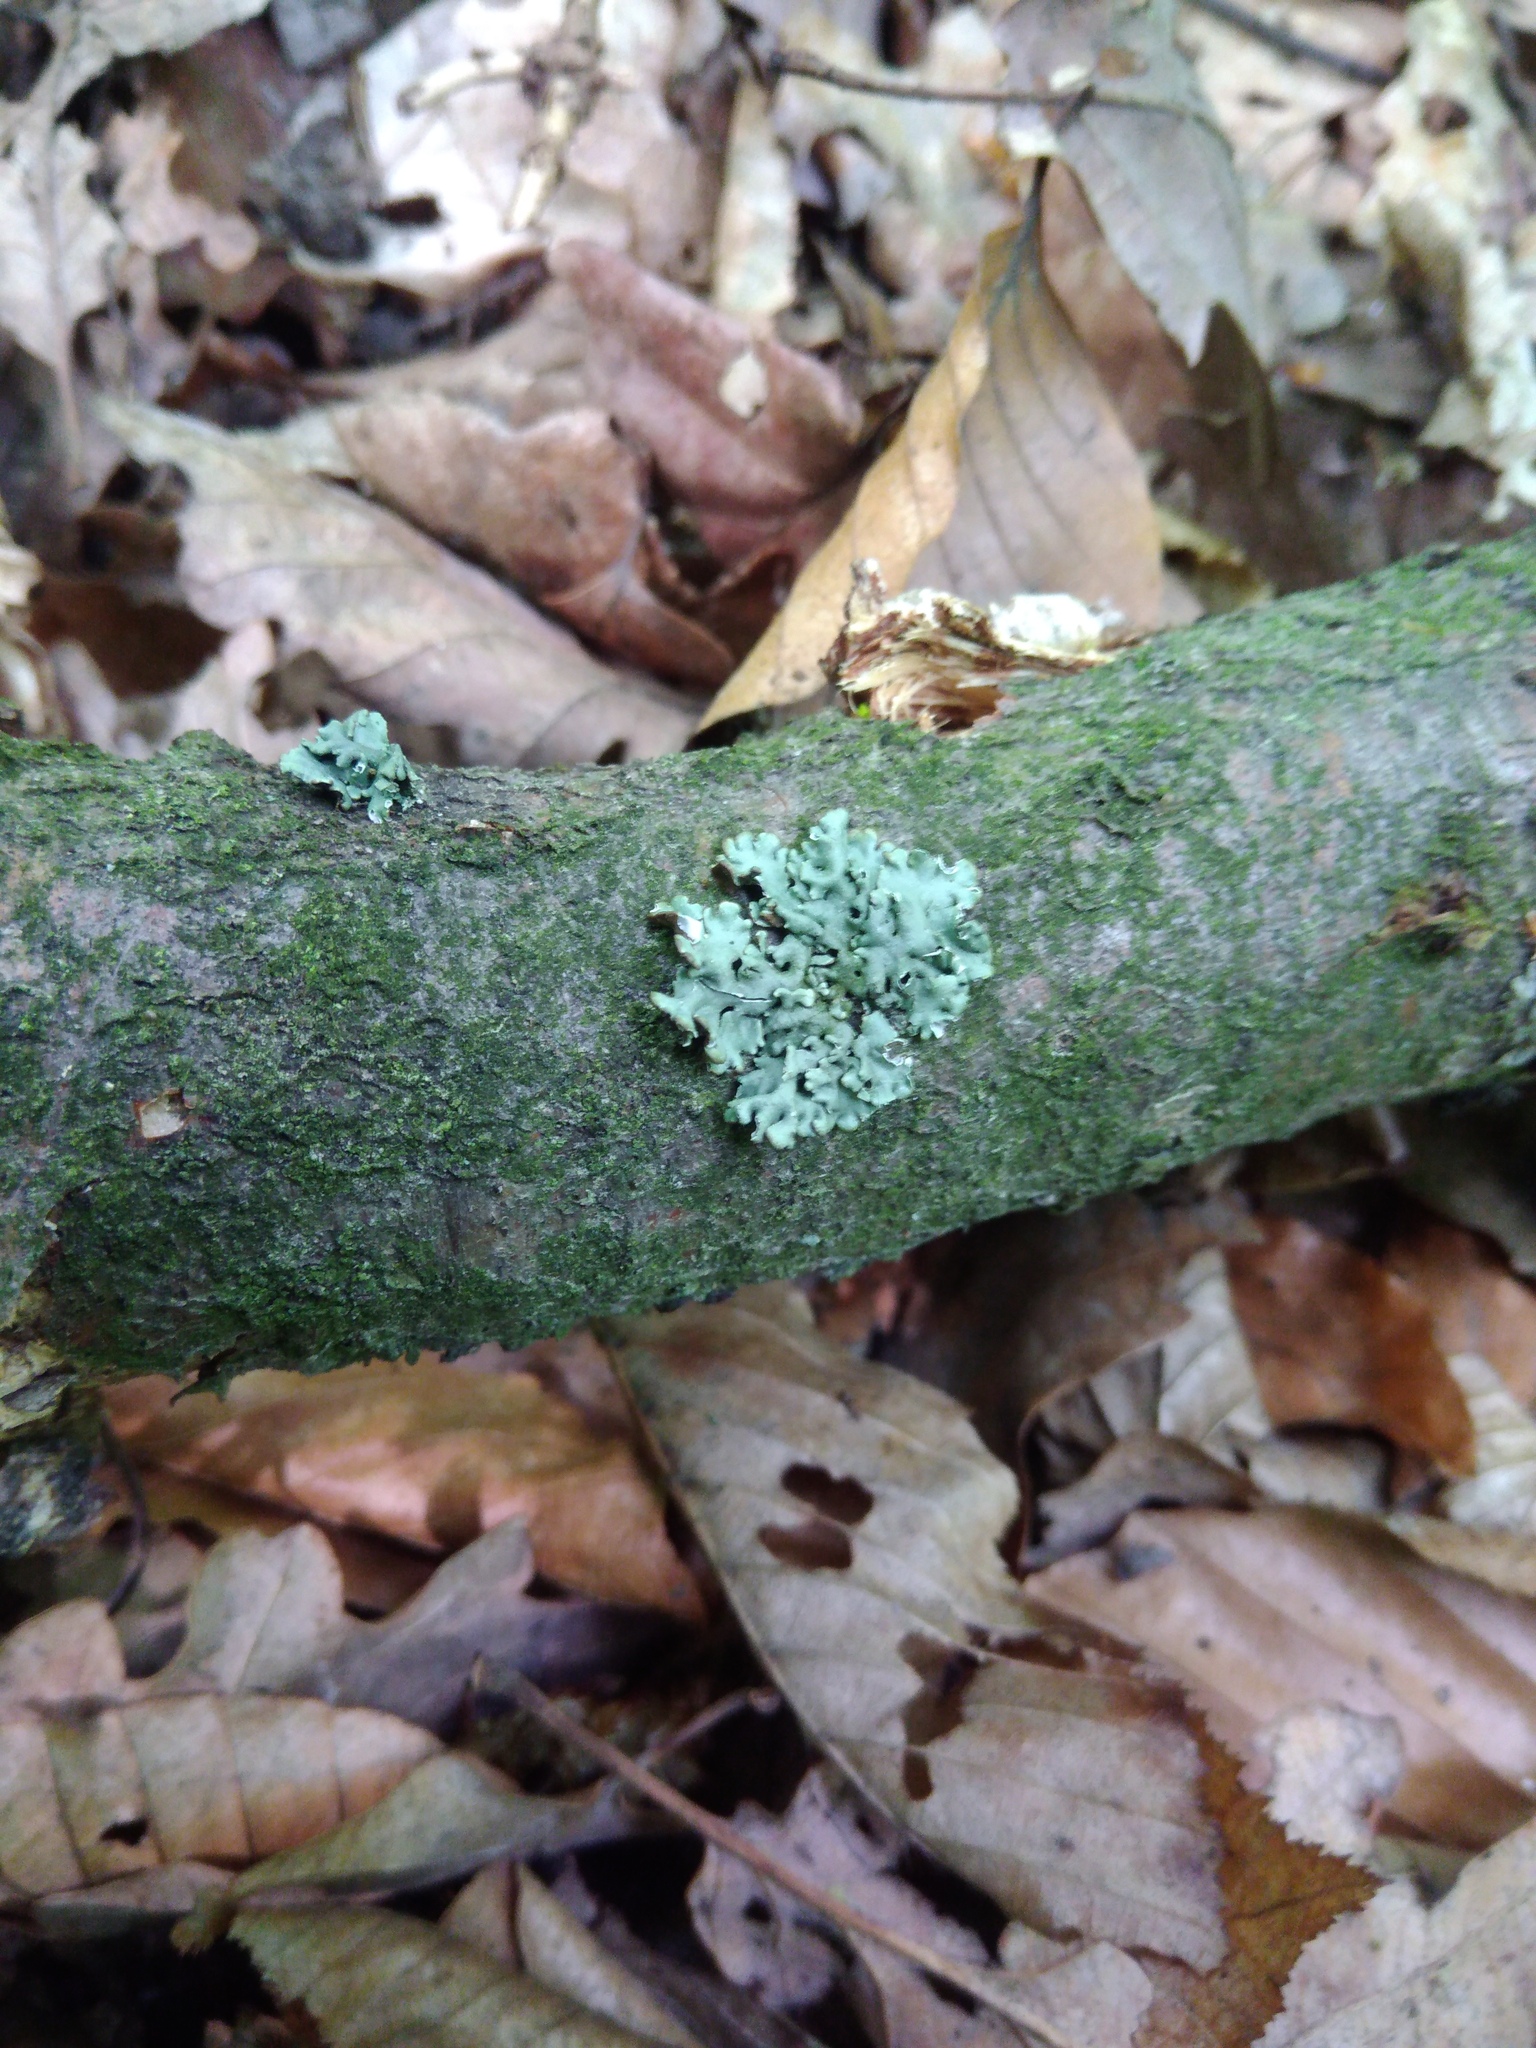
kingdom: Fungi
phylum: Ascomycota
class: Lecanoromycetes
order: Lecanorales
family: Parmeliaceae
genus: Hypogymnia
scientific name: Hypogymnia physodes
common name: Dark crottle
